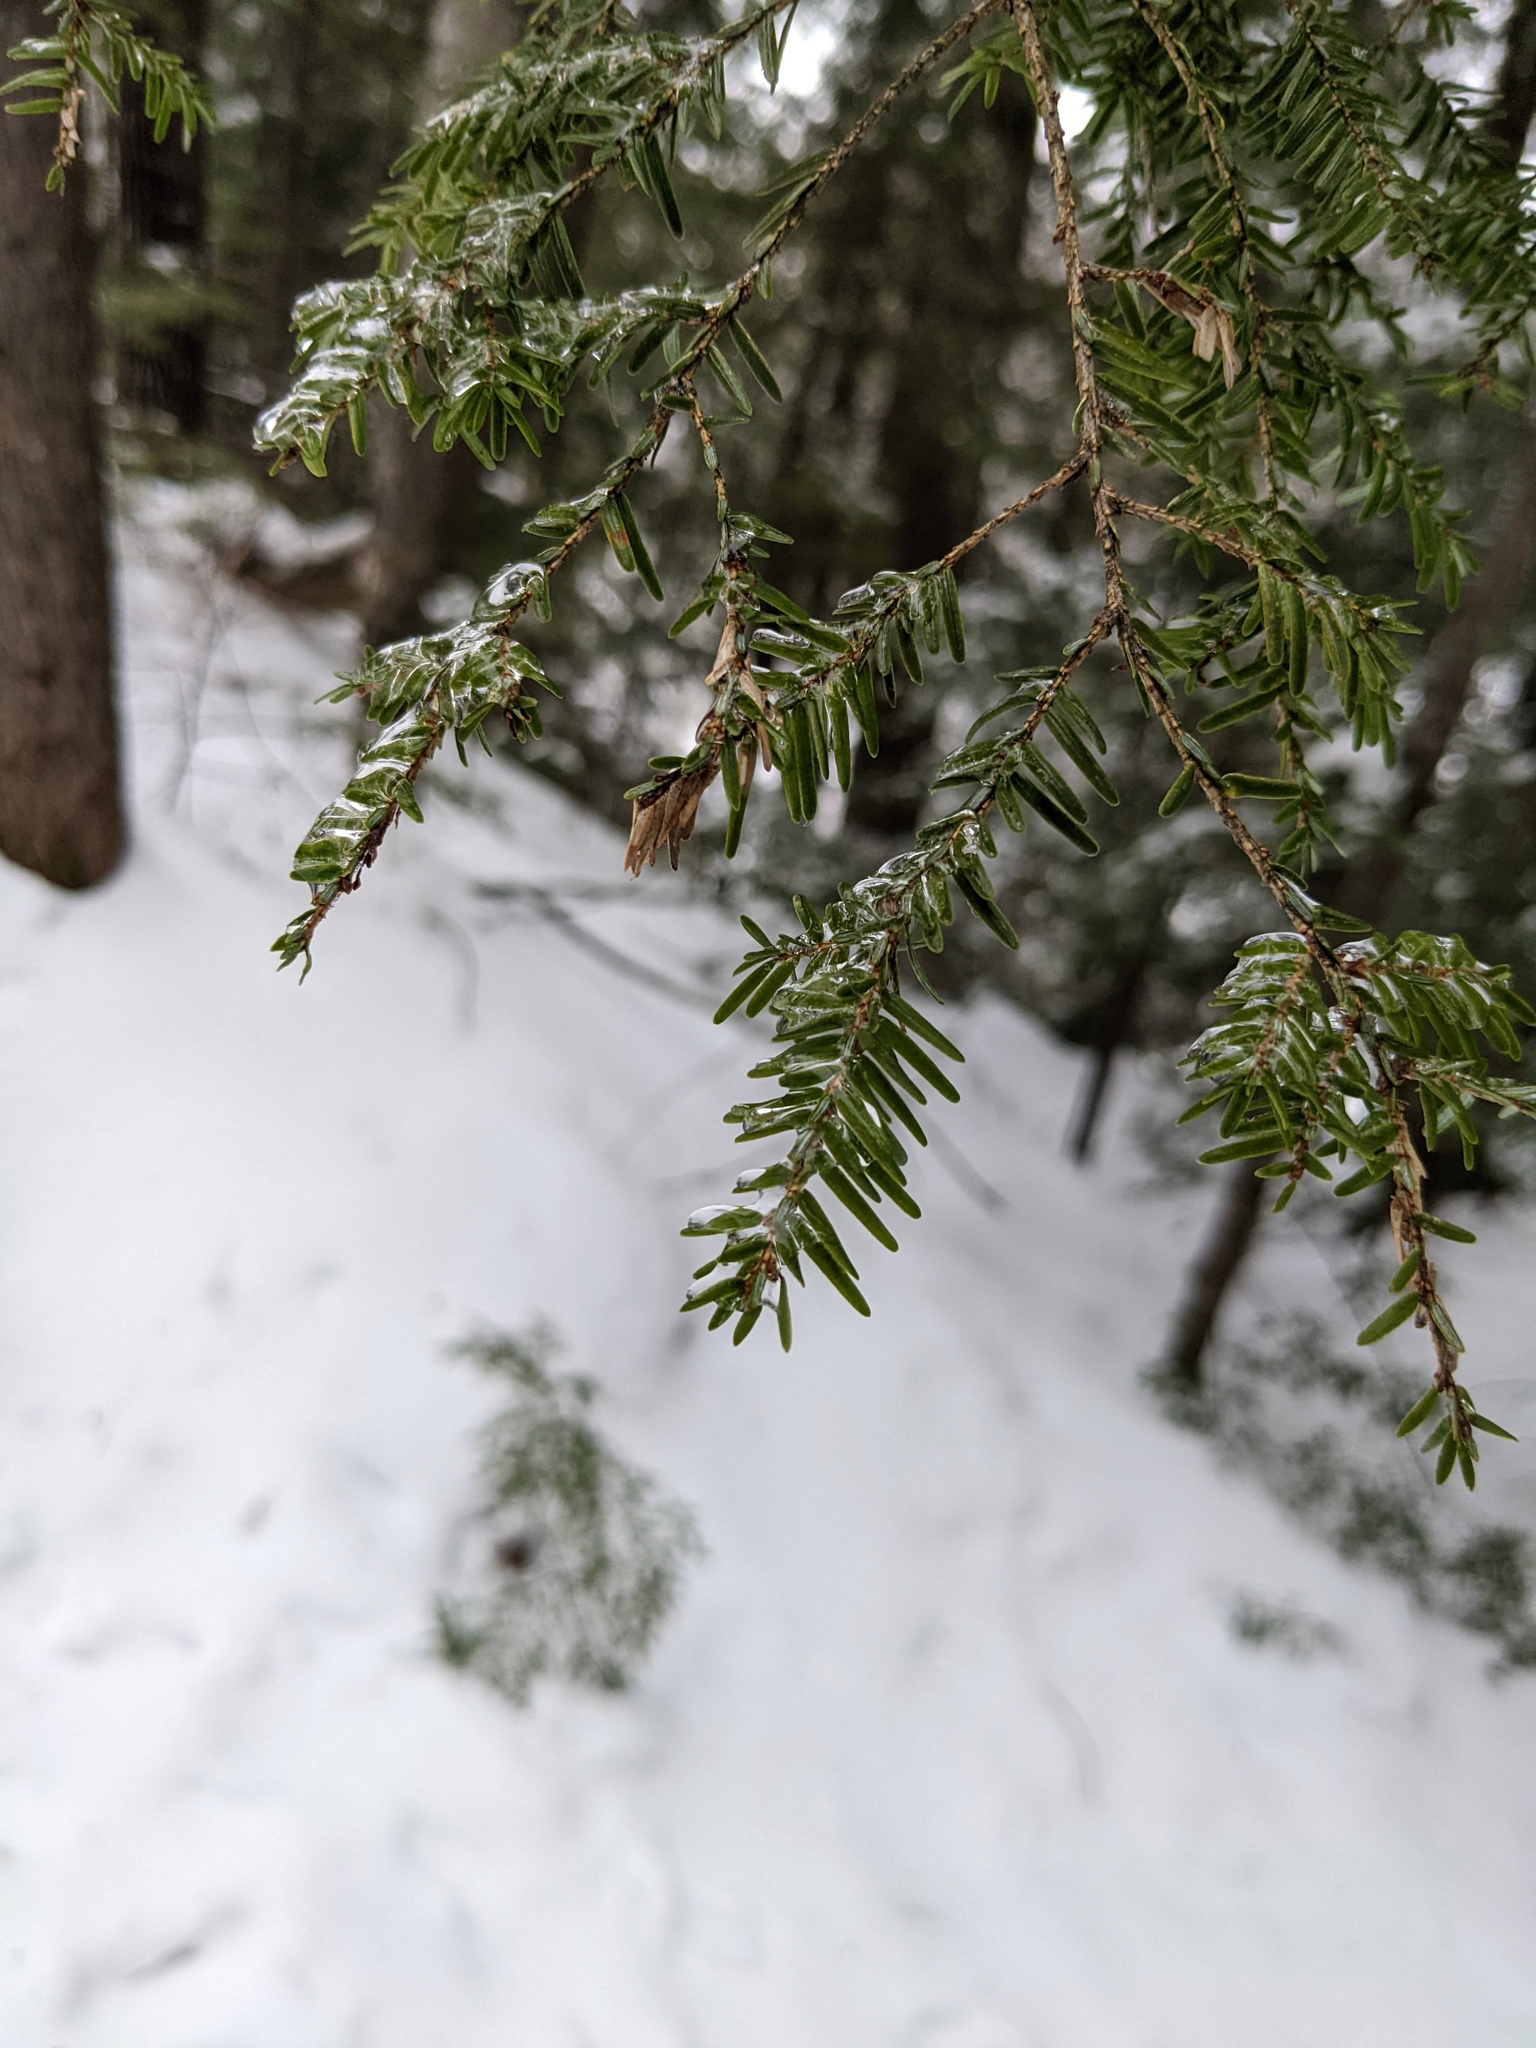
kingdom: Plantae
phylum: Tracheophyta
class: Pinopsida
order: Pinales
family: Pinaceae
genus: Tsuga
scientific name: Tsuga canadensis
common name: Eastern hemlock
